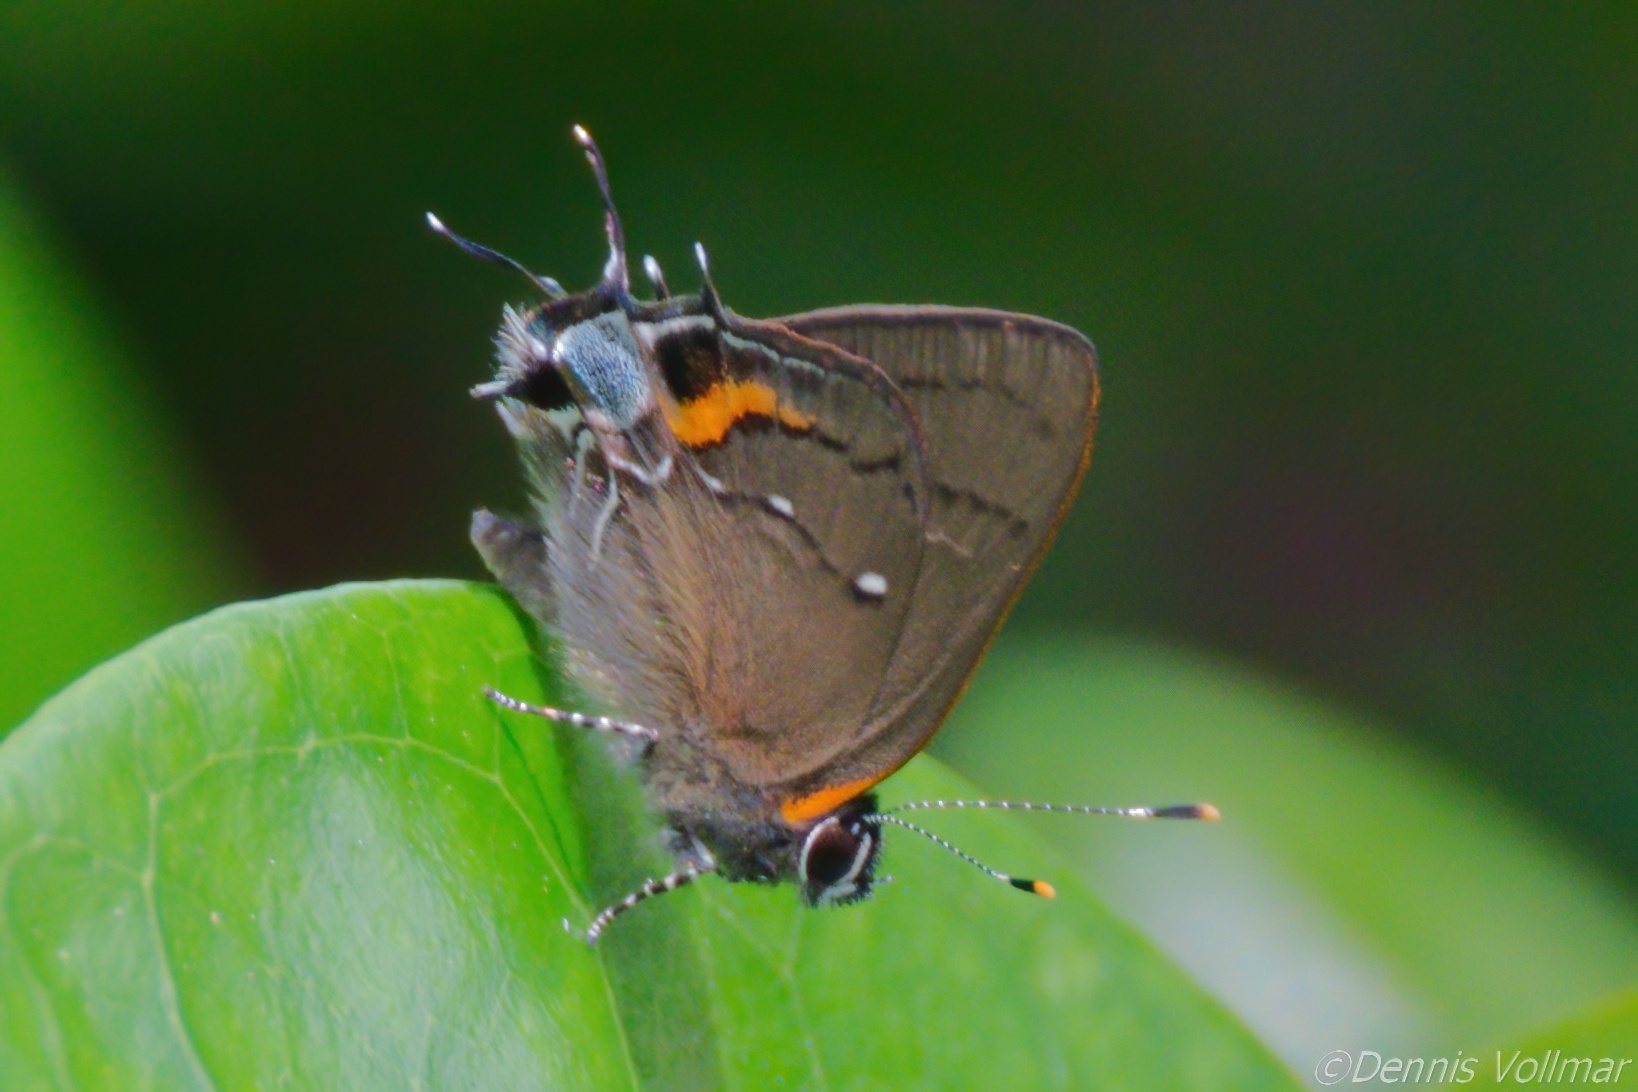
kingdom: Animalia
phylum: Arthropoda
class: Insecta
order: Lepidoptera
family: Lycaenidae
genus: Thecla
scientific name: Thecla angelia
